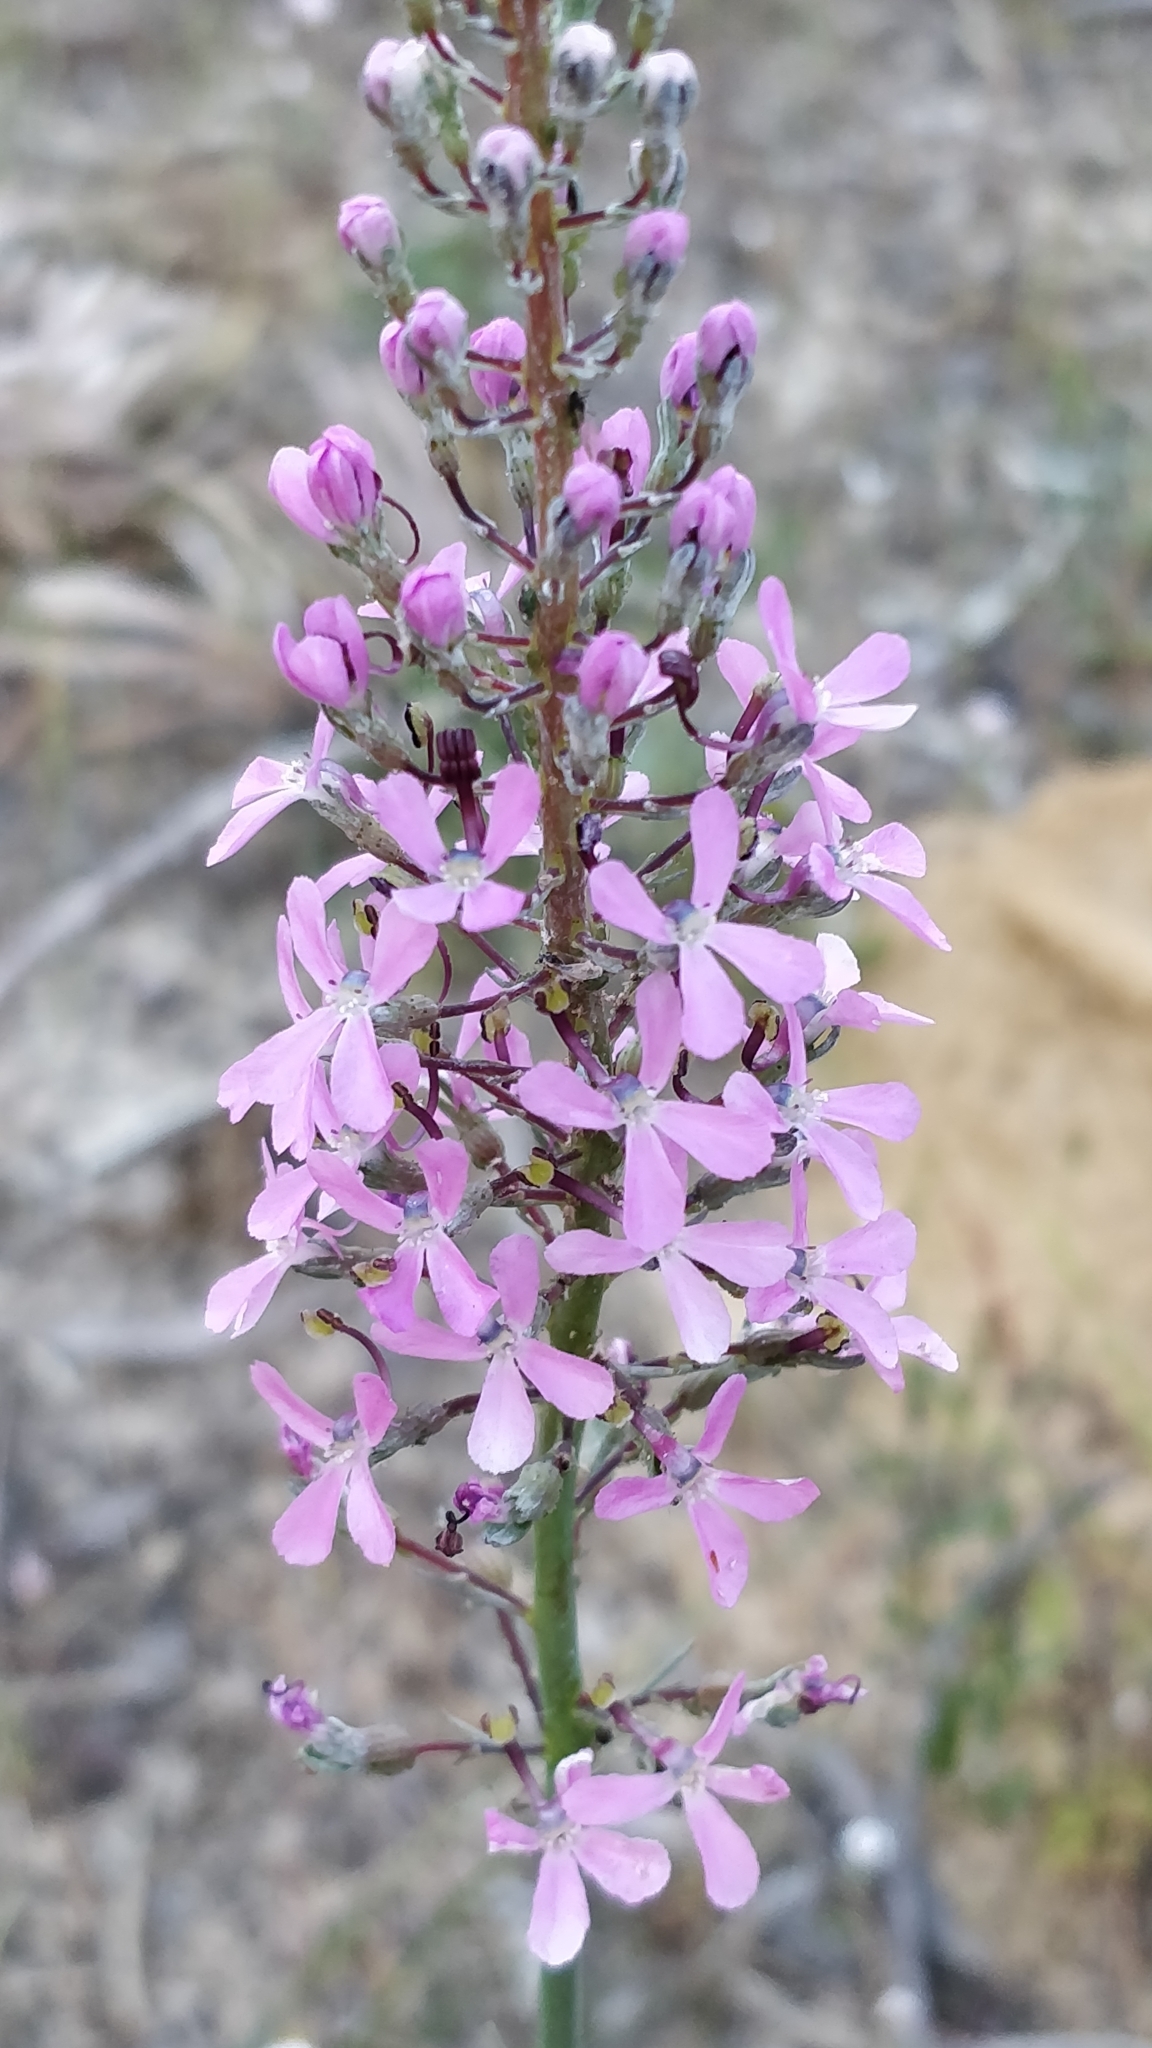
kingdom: Plantae
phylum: Tracheophyta
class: Magnoliopsida
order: Asterales
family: Stylidiaceae
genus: Stylidium
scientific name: Stylidium araeophyllum
